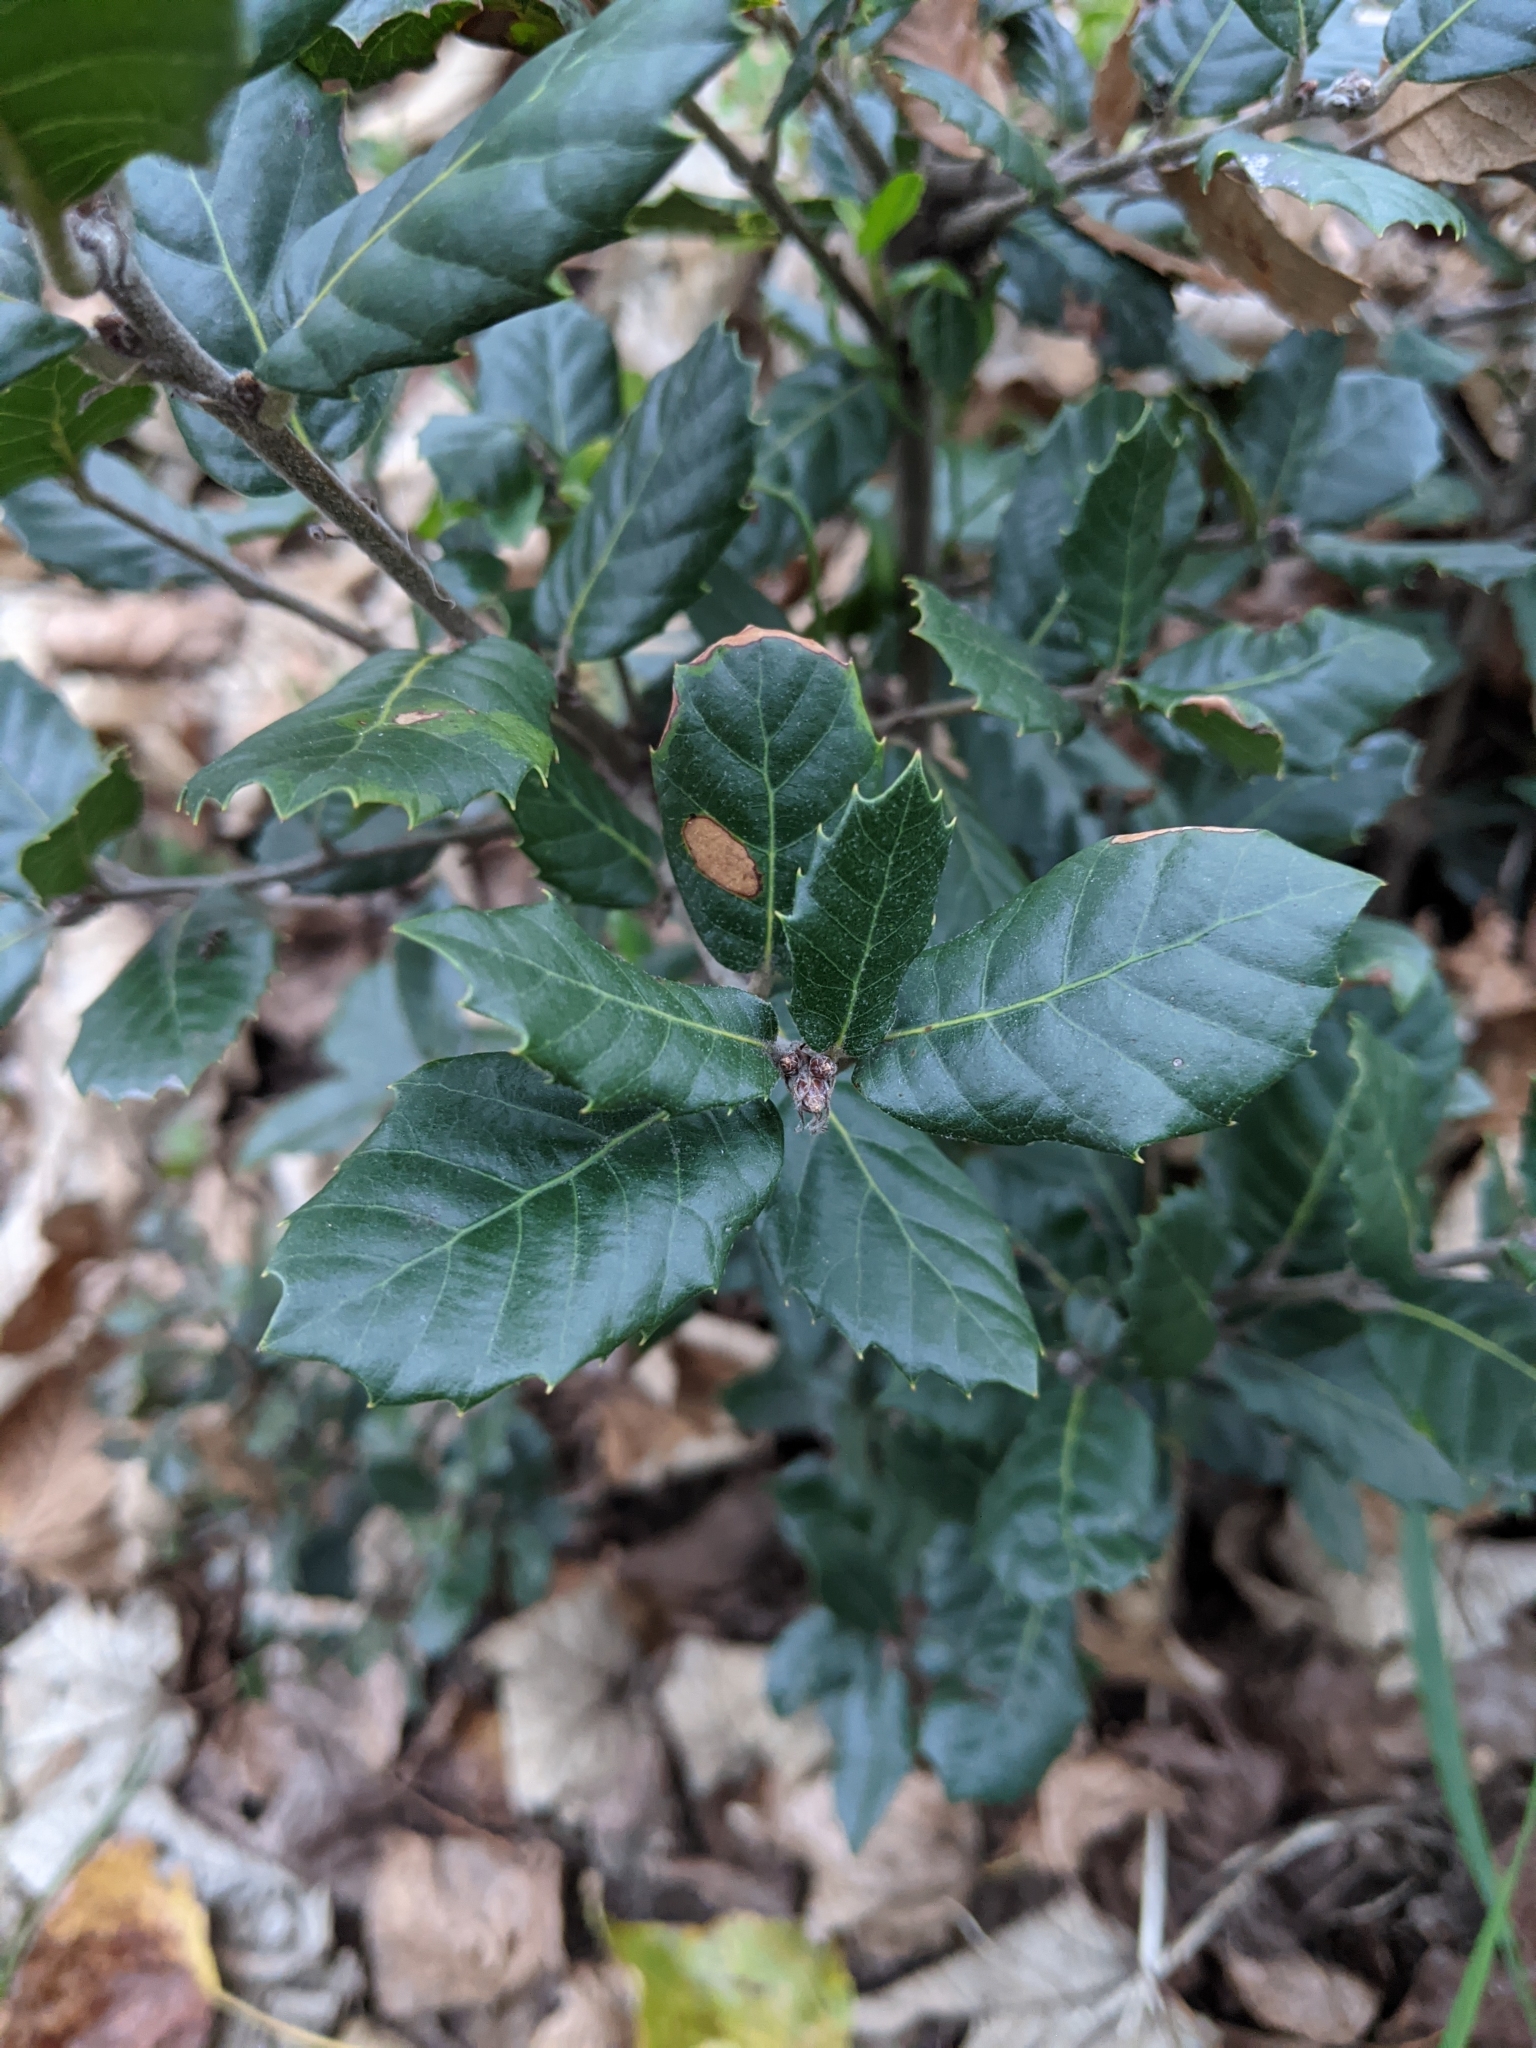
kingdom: Plantae
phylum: Tracheophyta
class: Magnoliopsida
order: Fagales
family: Fagaceae
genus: Quercus
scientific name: Quercus ilex
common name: Evergreen oak
